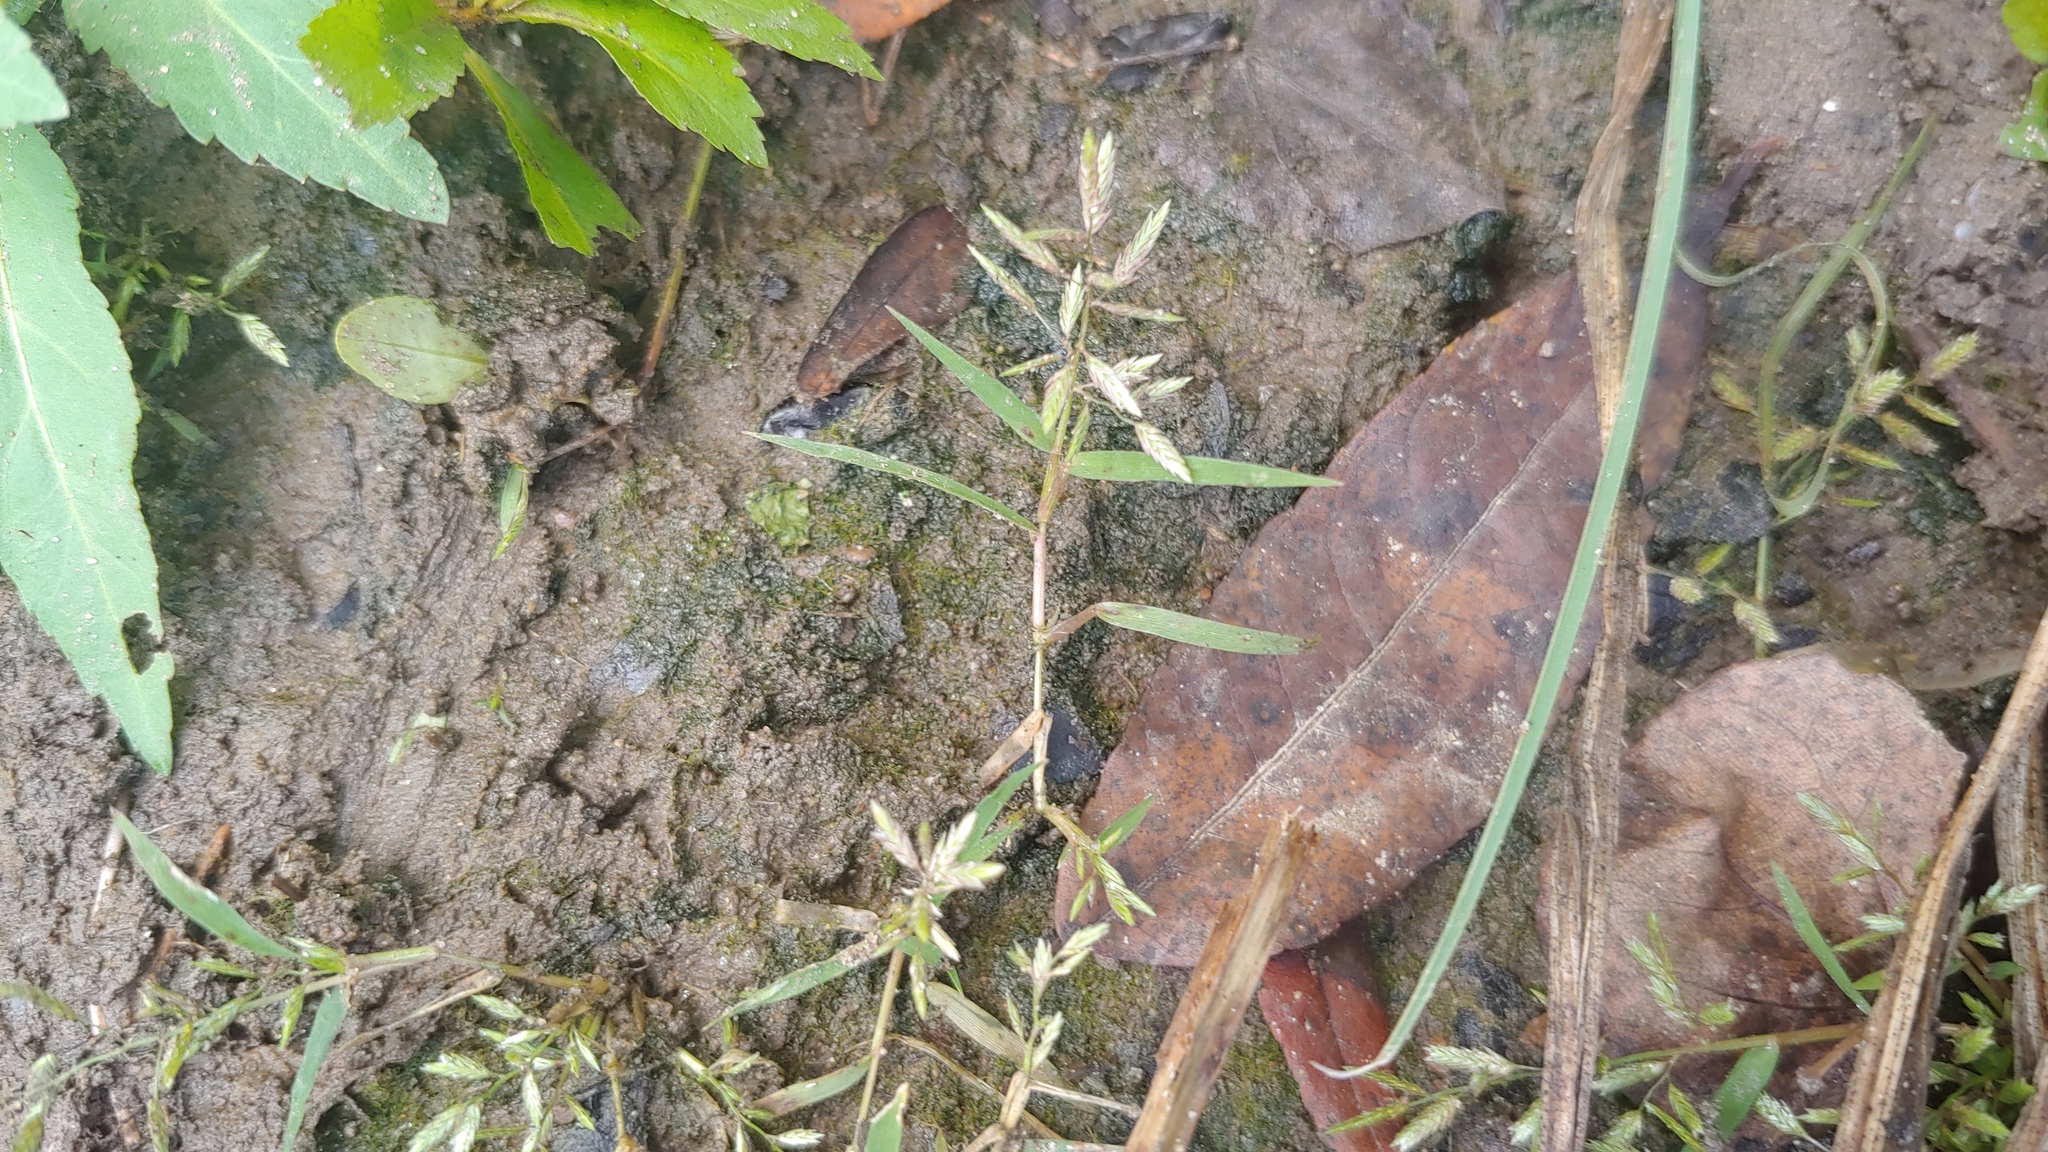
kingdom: Plantae
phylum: Tracheophyta
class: Liliopsida
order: Poales
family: Poaceae
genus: Eragrostis
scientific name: Eragrostis hypnoides
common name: Creeping love grass
